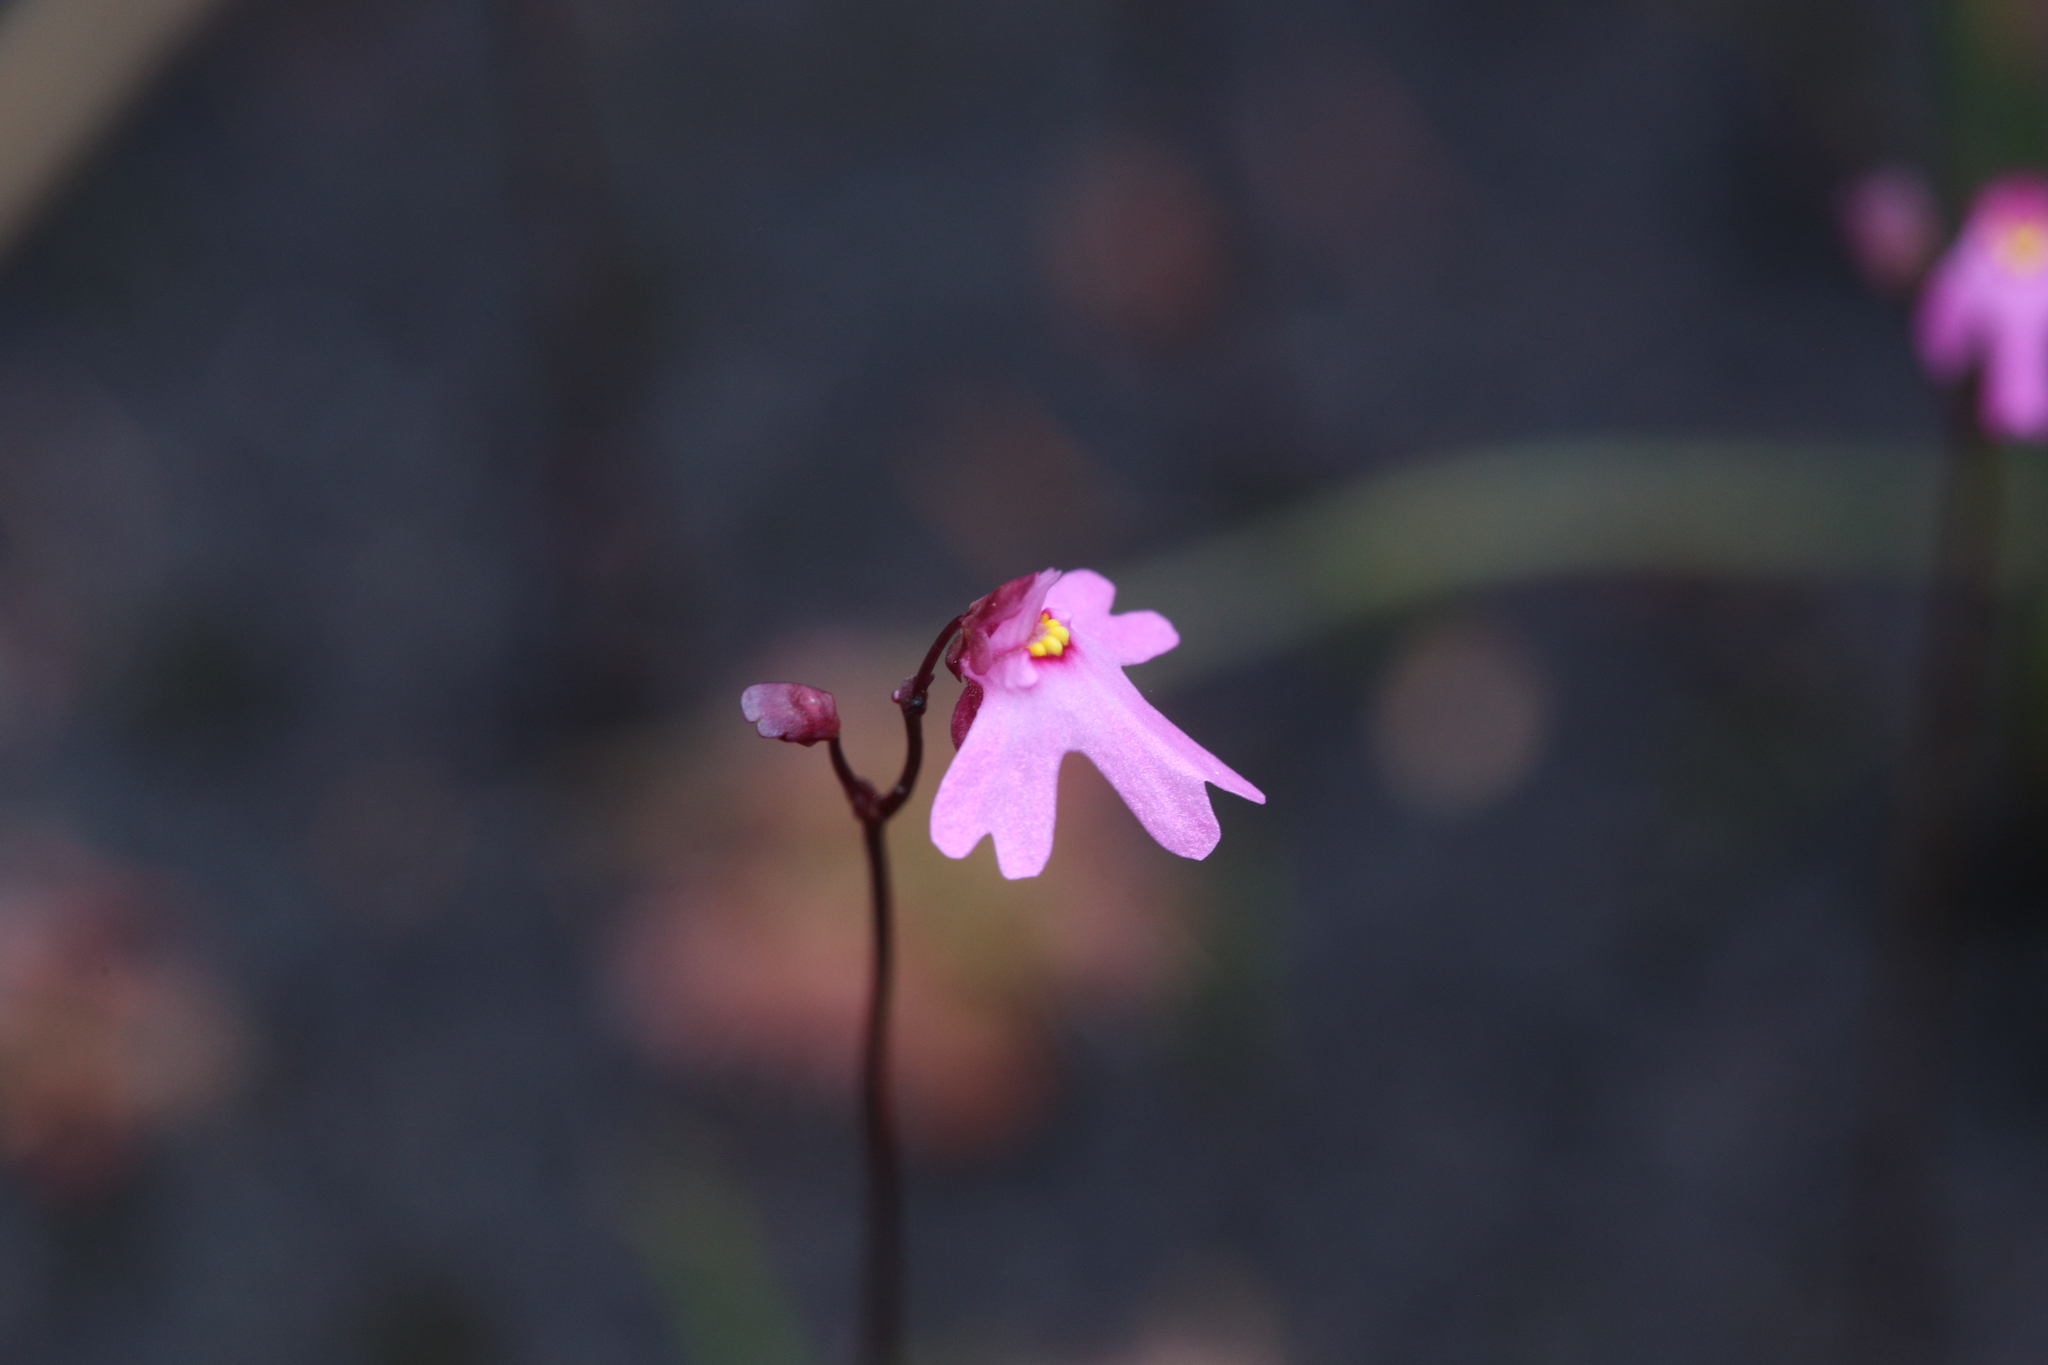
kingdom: Plantae
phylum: Tracheophyta
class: Magnoliopsida
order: Lamiales
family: Lentibulariaceae
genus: Utricularia
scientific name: Utricularia multifida
